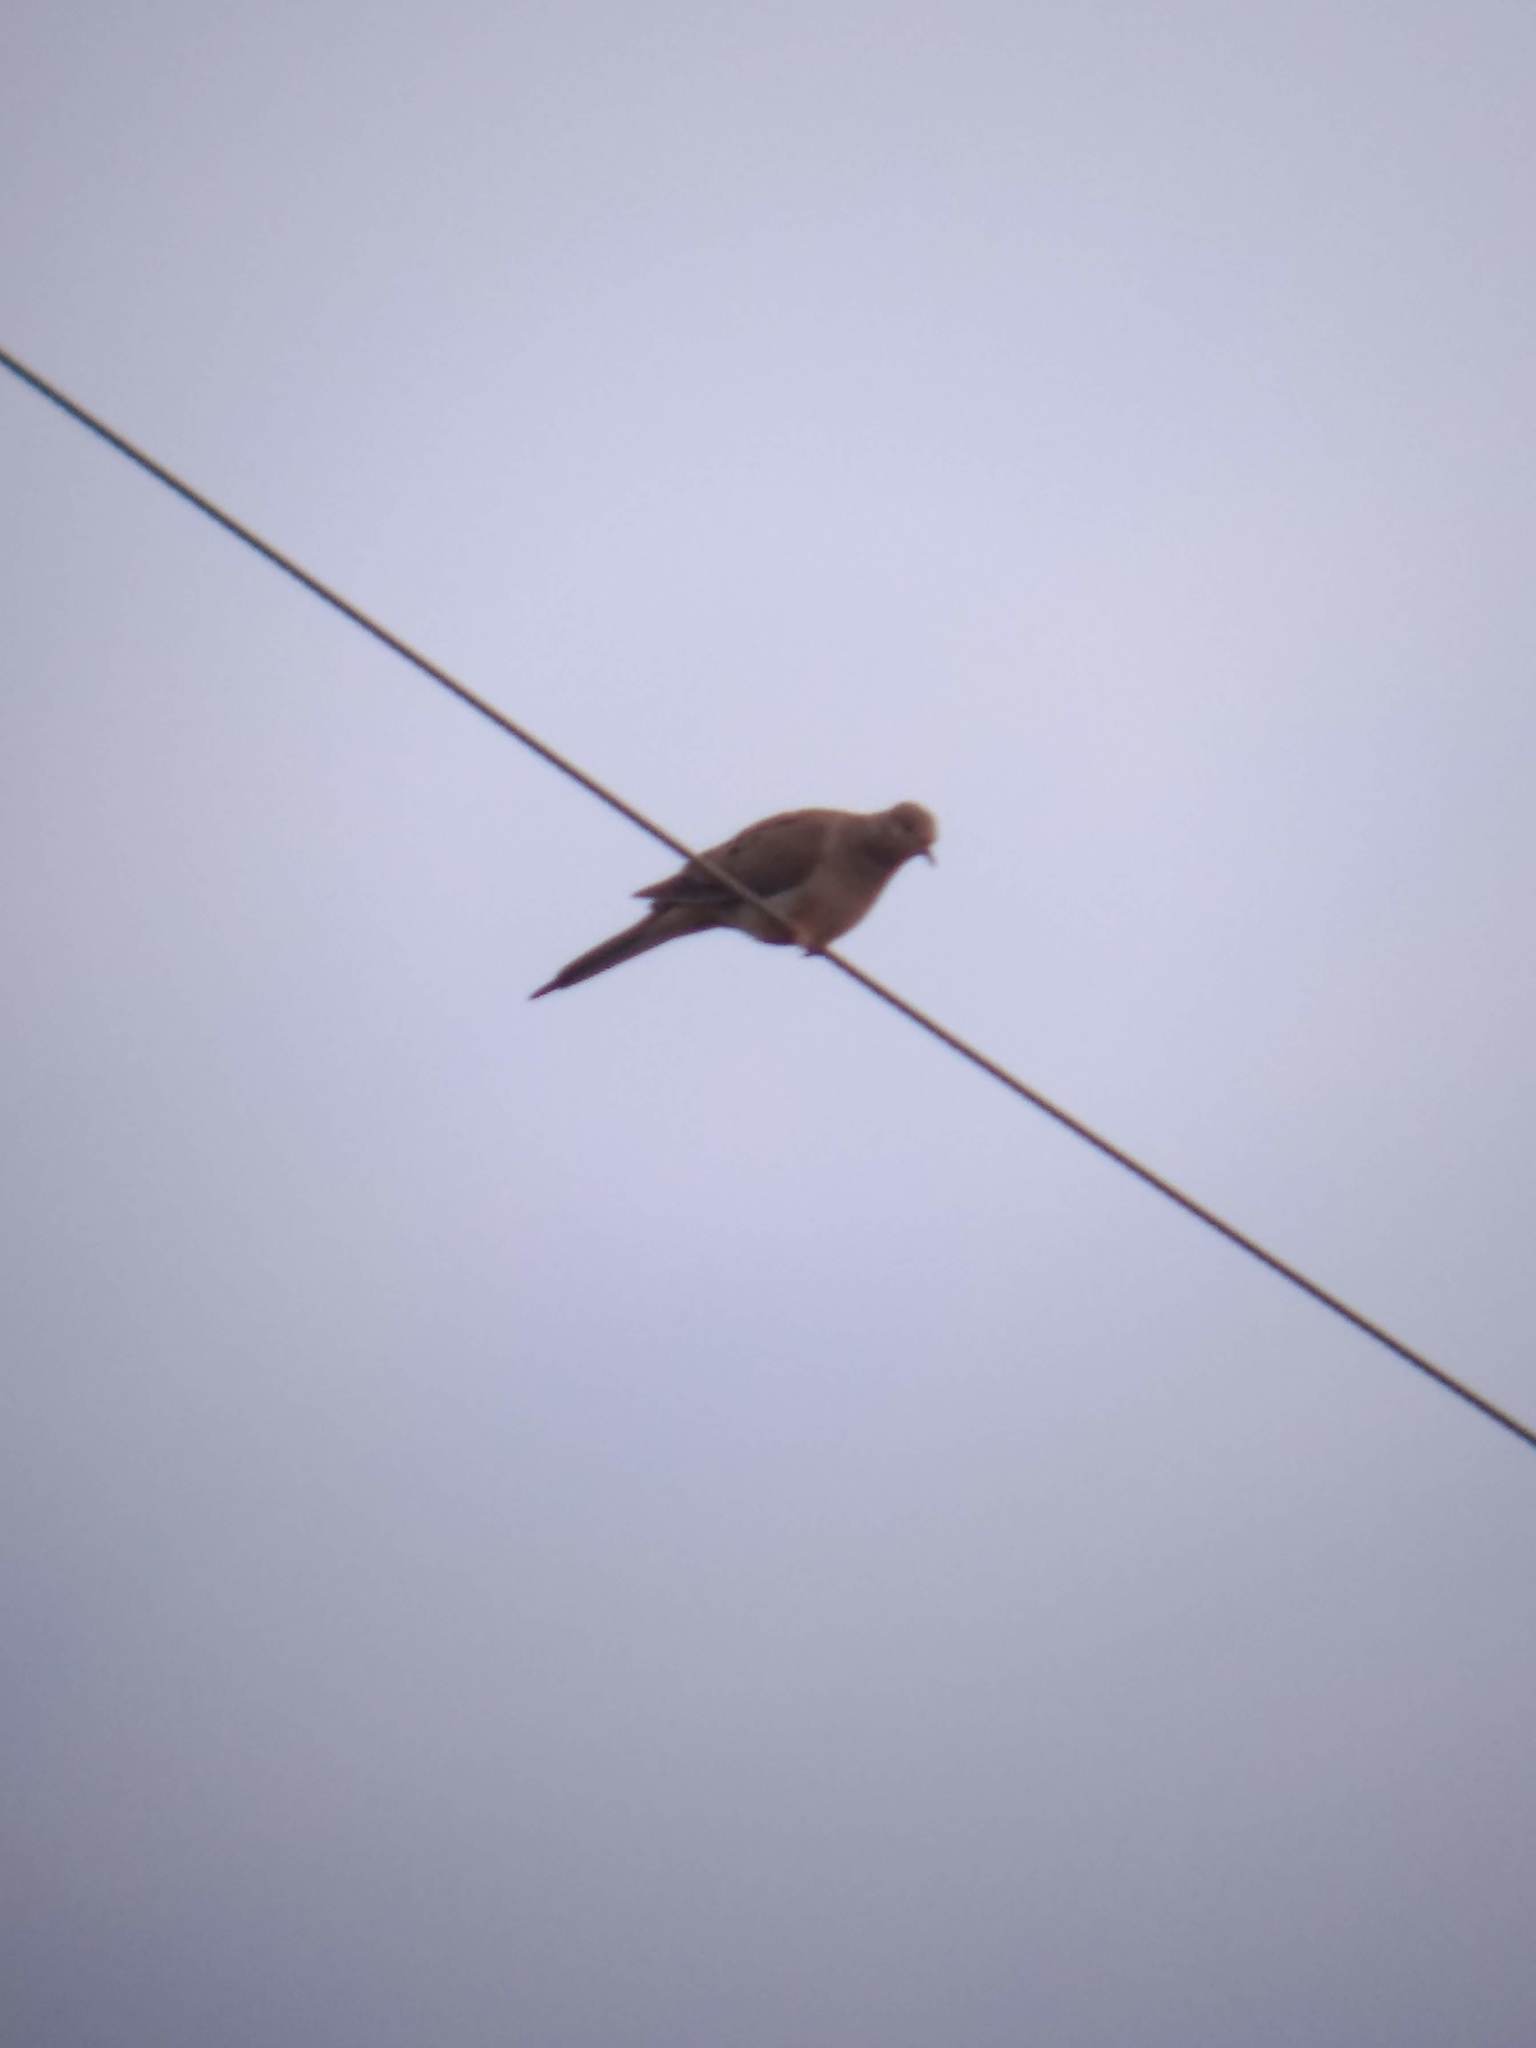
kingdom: Animalia
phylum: Chordata
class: Aves
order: Columbiformes
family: Columbidae
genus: Zenaida
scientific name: Zenaida macroura
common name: Mourning dove
